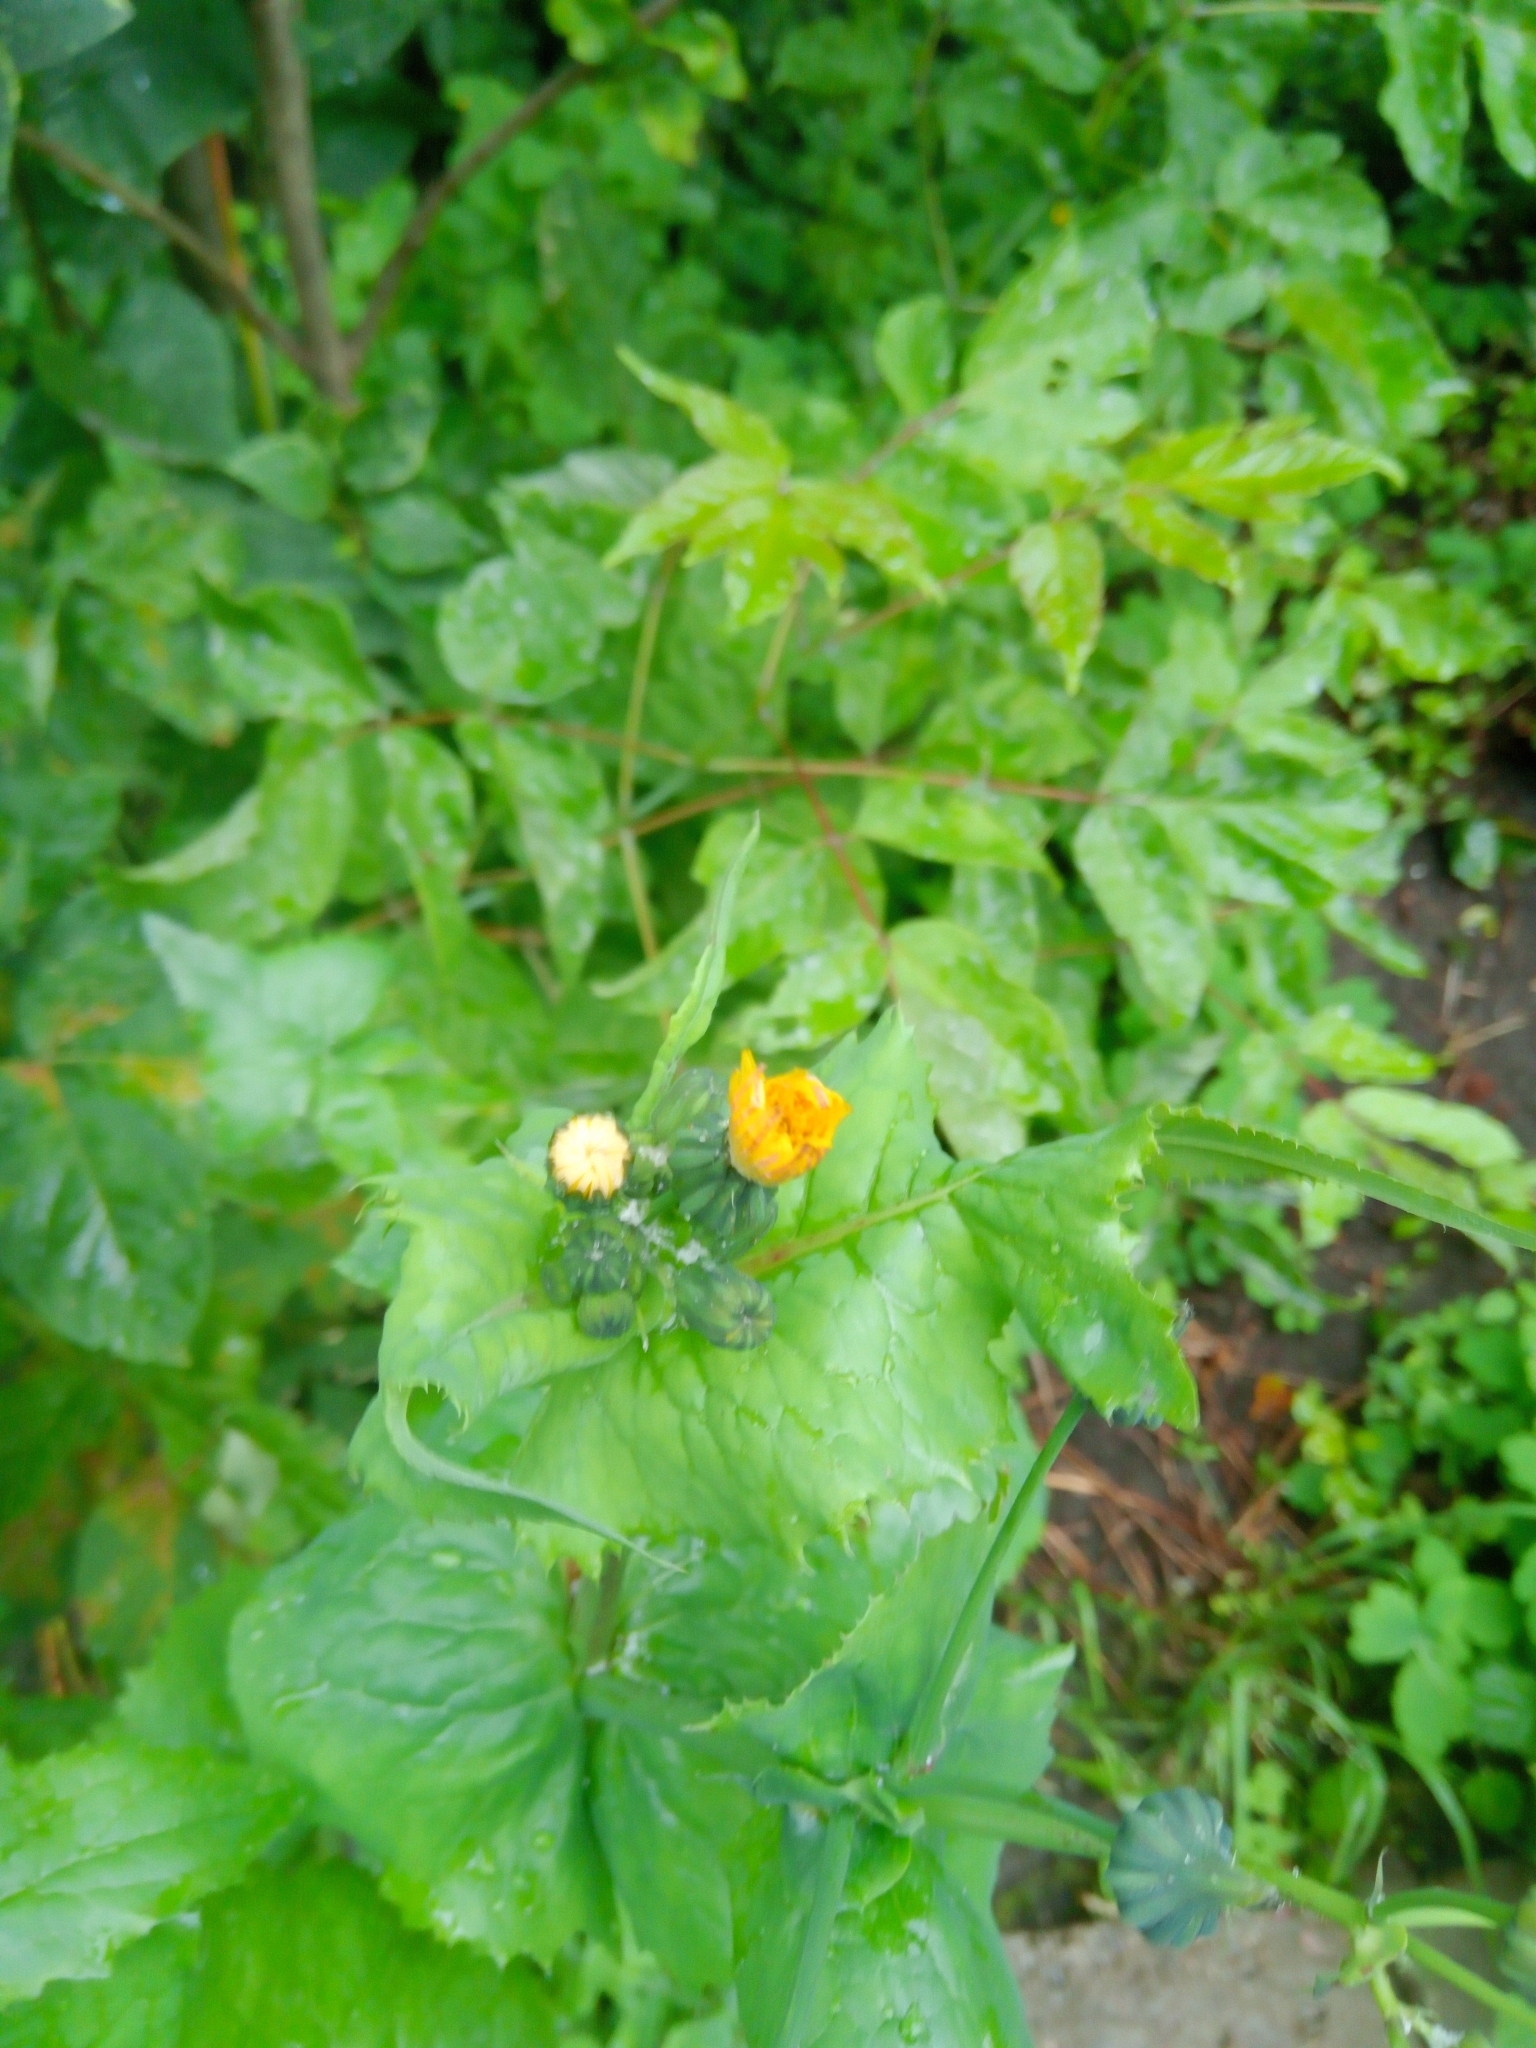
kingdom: Plantae
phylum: Tracheophyta
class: Magnoliopsida
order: Asterales
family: Asteraceae
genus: Sonchus
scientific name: Sonchus oleraceus
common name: Common sowthistle
